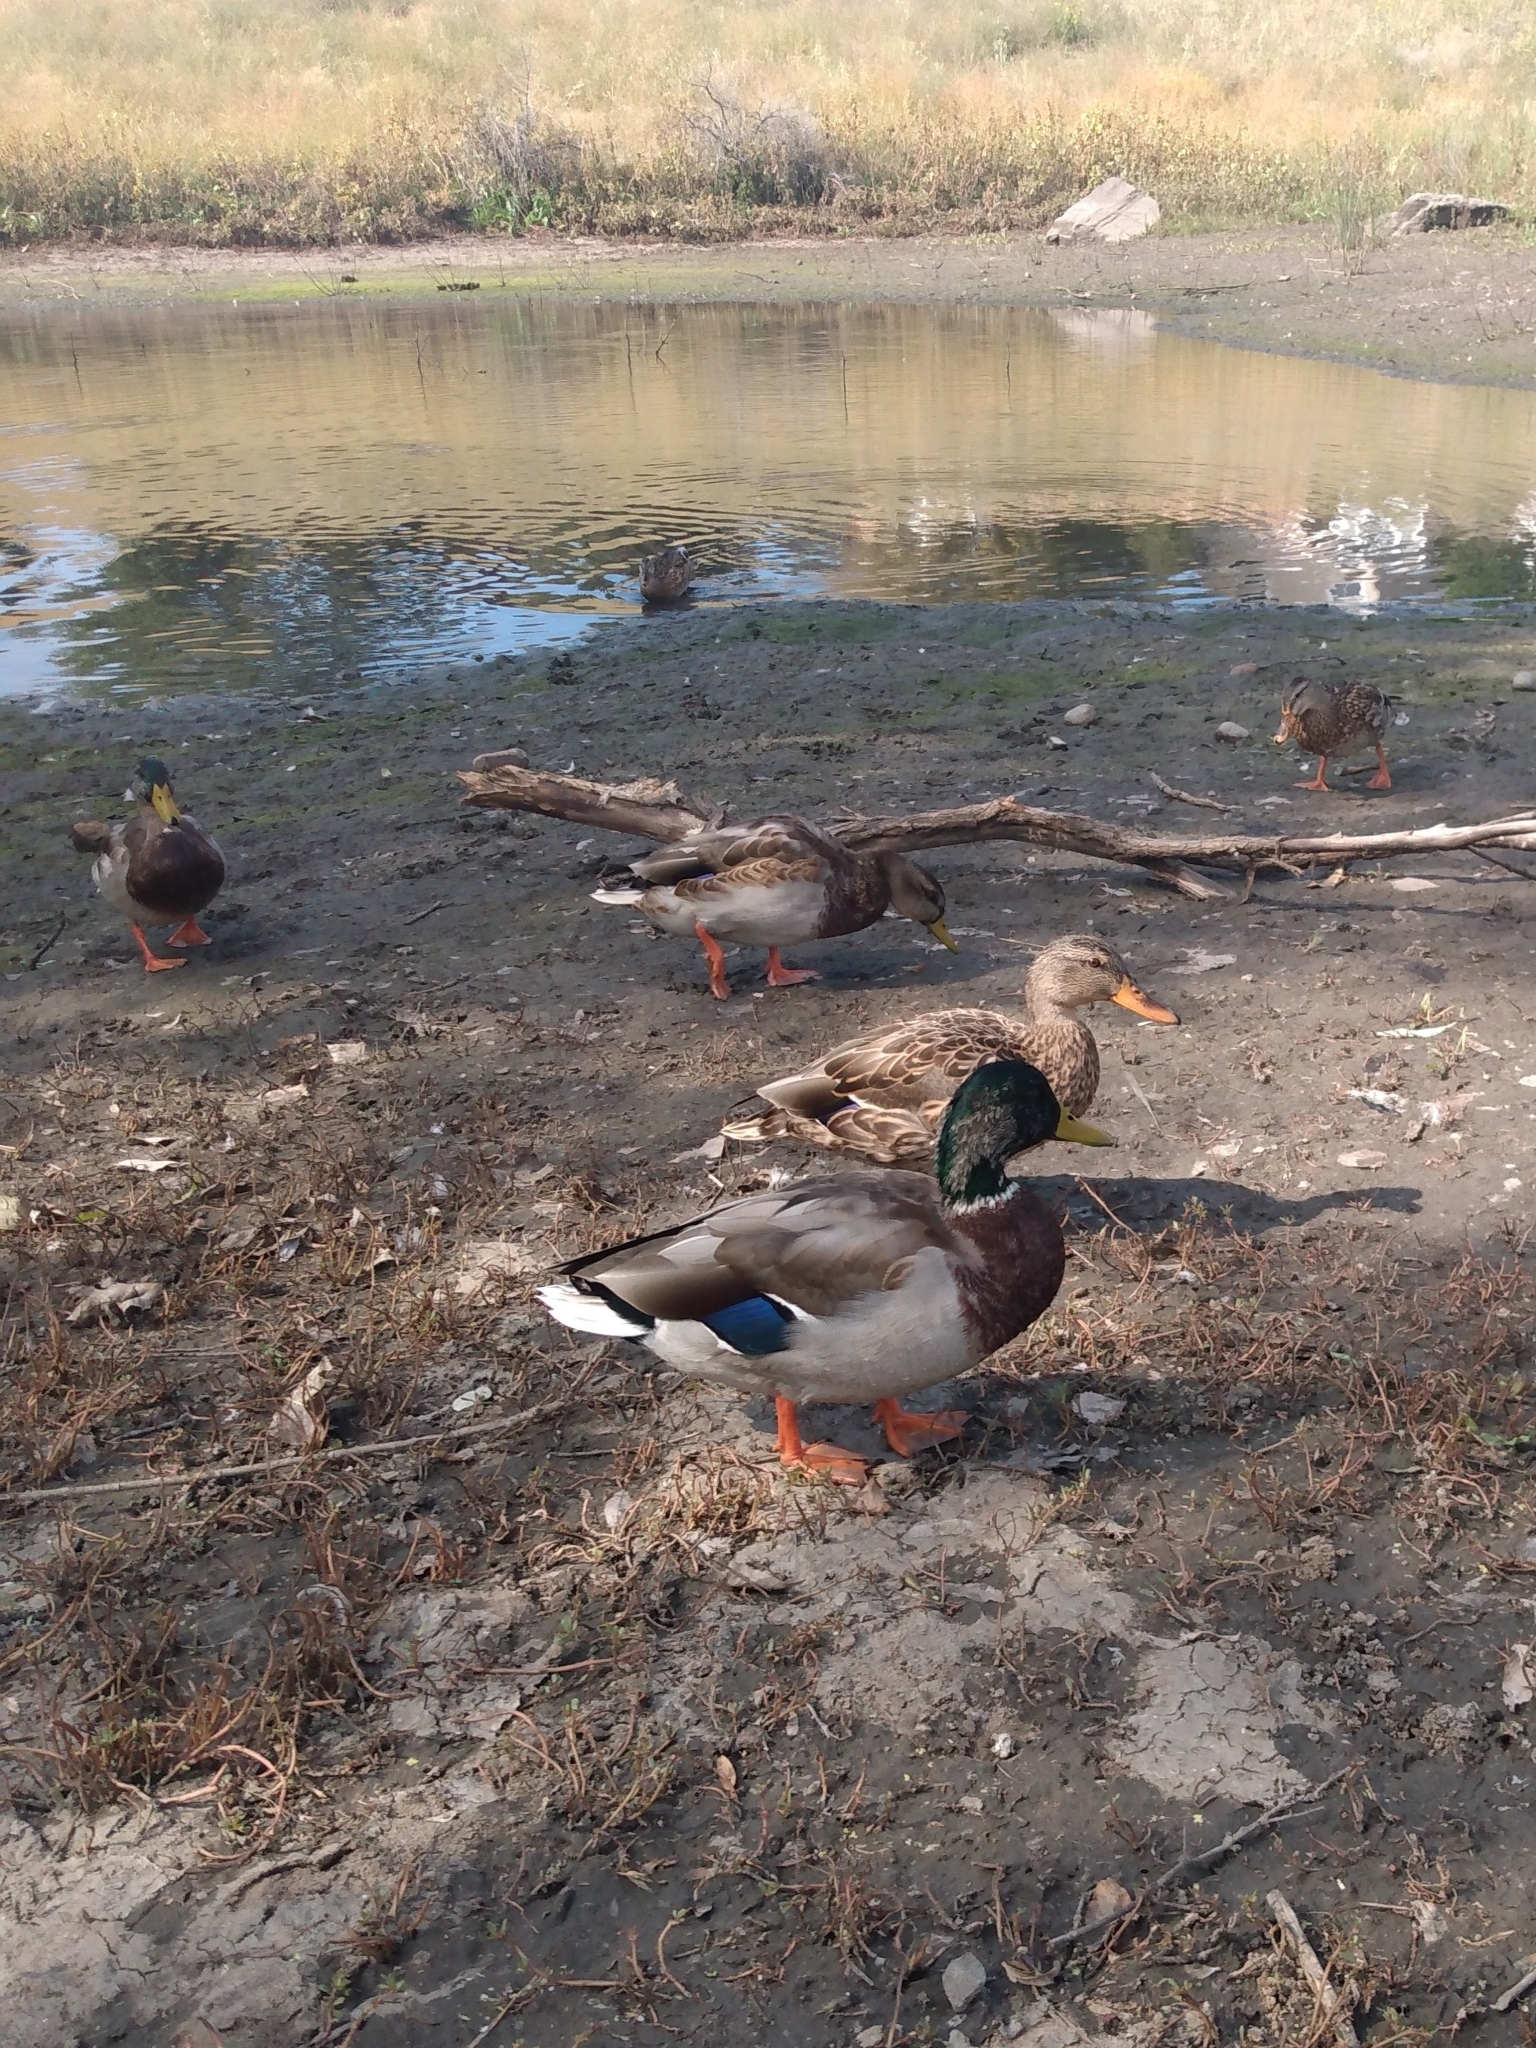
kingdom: Animalia
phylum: Chordata
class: Aves
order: Anseriformes
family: Anatidae
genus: Anas
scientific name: Anas platyrhynchos
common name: Mallard
